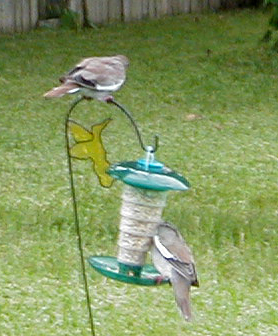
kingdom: Animalia
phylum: Chordata
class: Aves
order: Columbiformes
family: Columbidae
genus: Zenaida
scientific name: Zenaida asiatica
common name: White-winged dove
